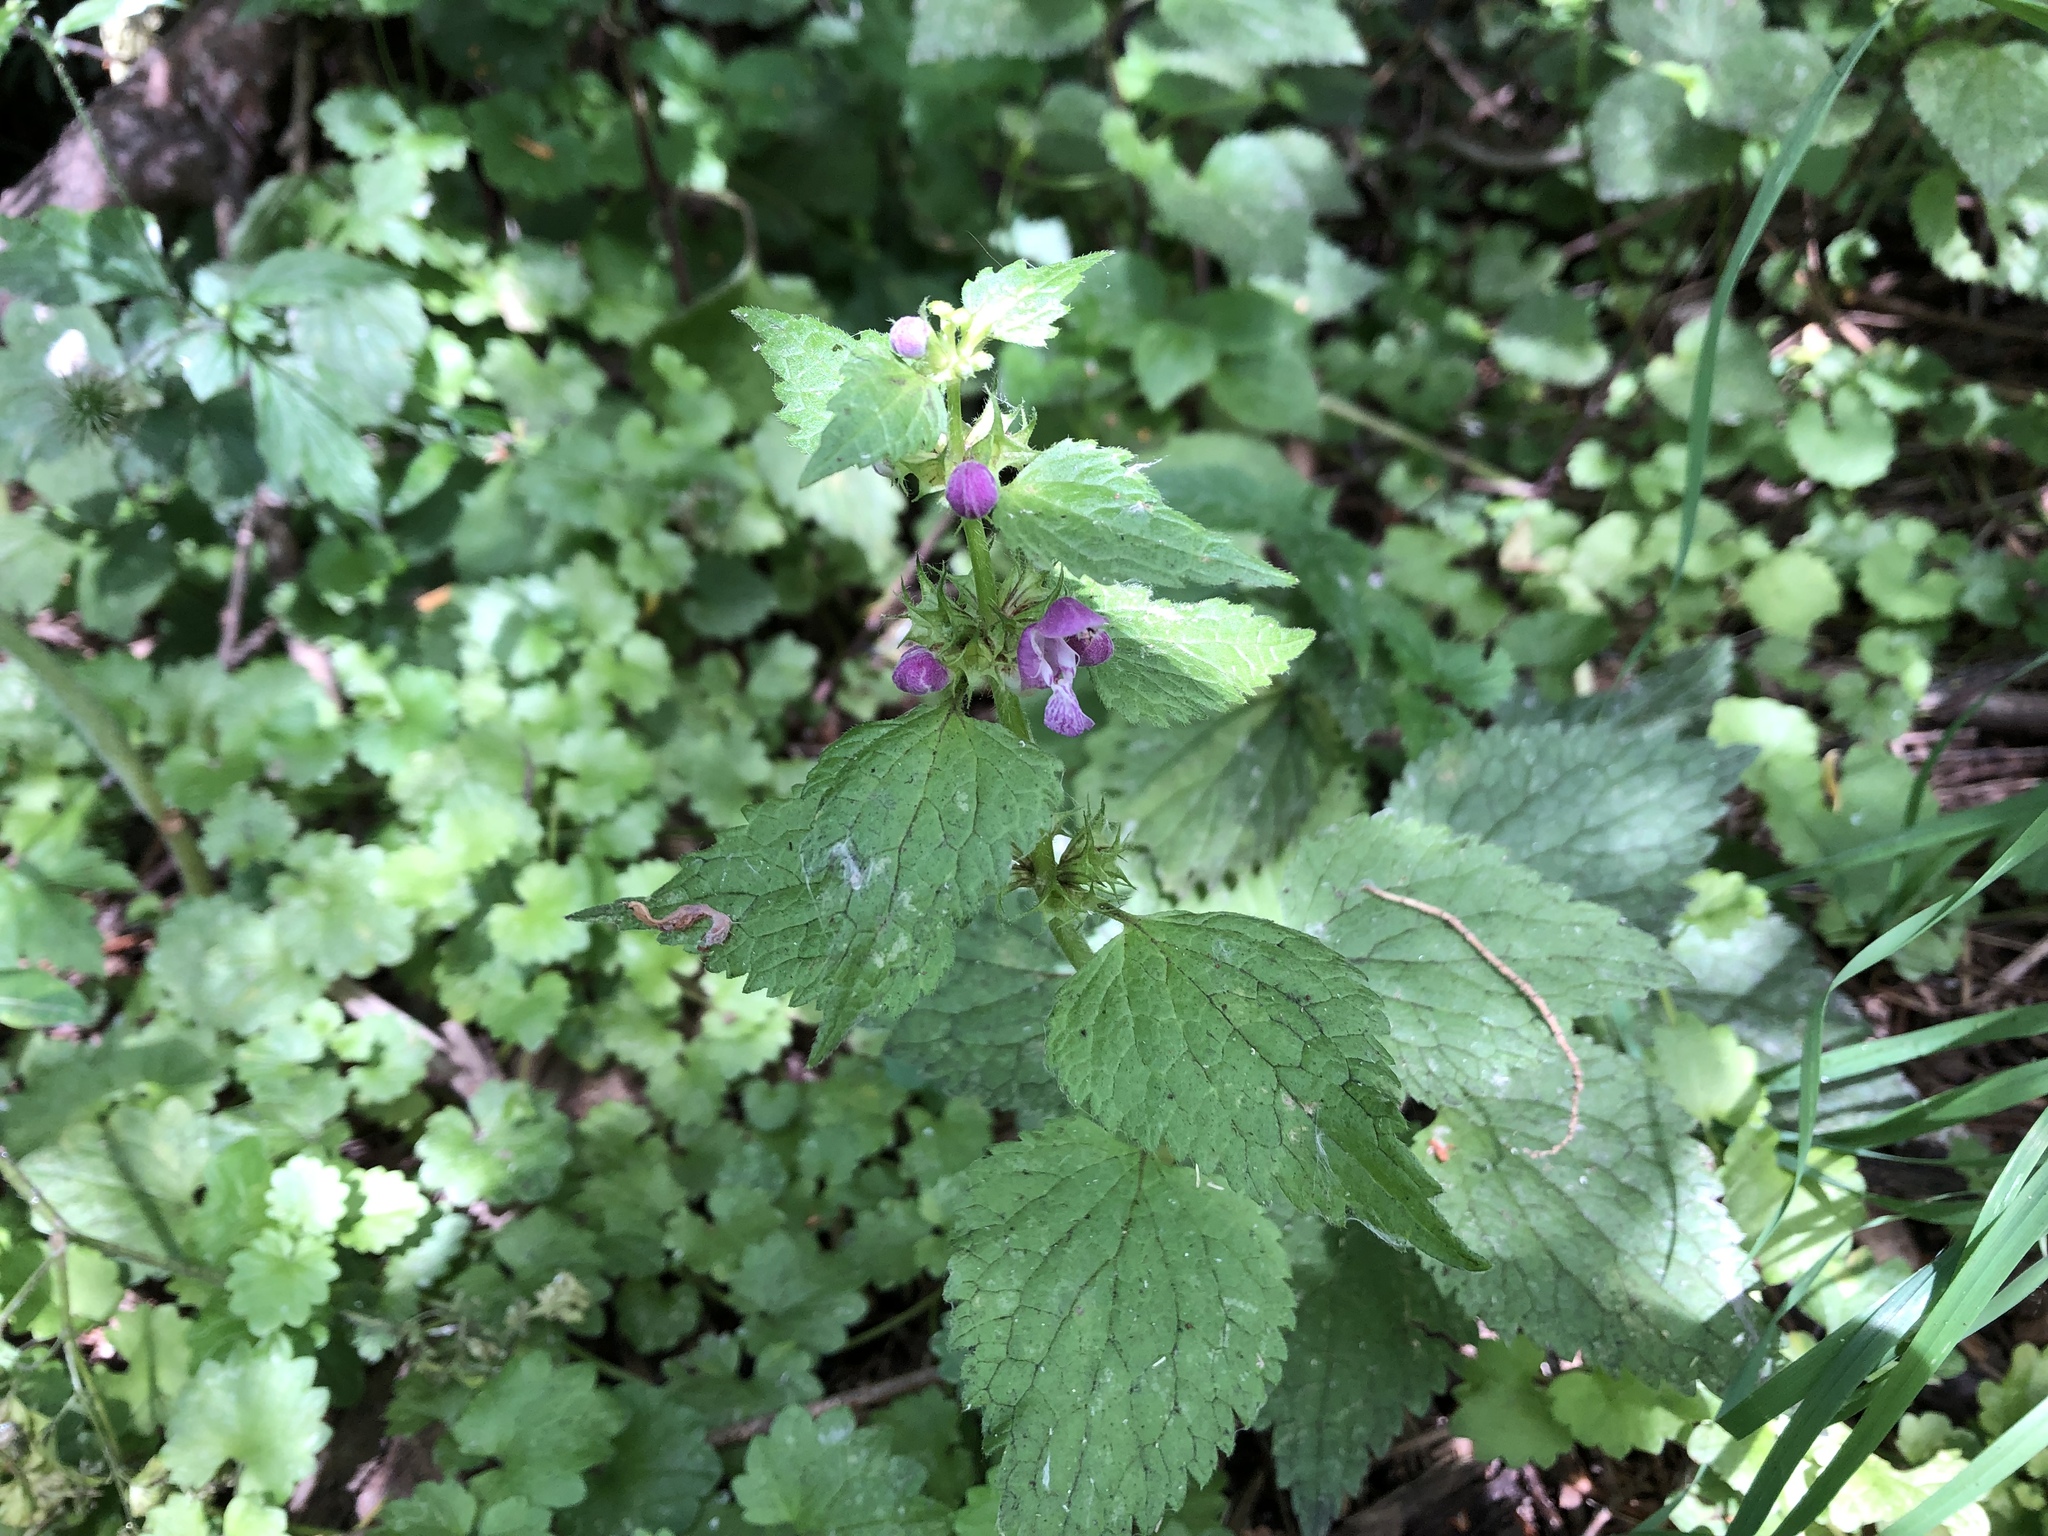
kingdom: Plantae
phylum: Tracheophyta
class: Magnoliopsida
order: Lamiales
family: Lamiaceae
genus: Lamium
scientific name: Lamium maculatum
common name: Spotted dead-nettle
